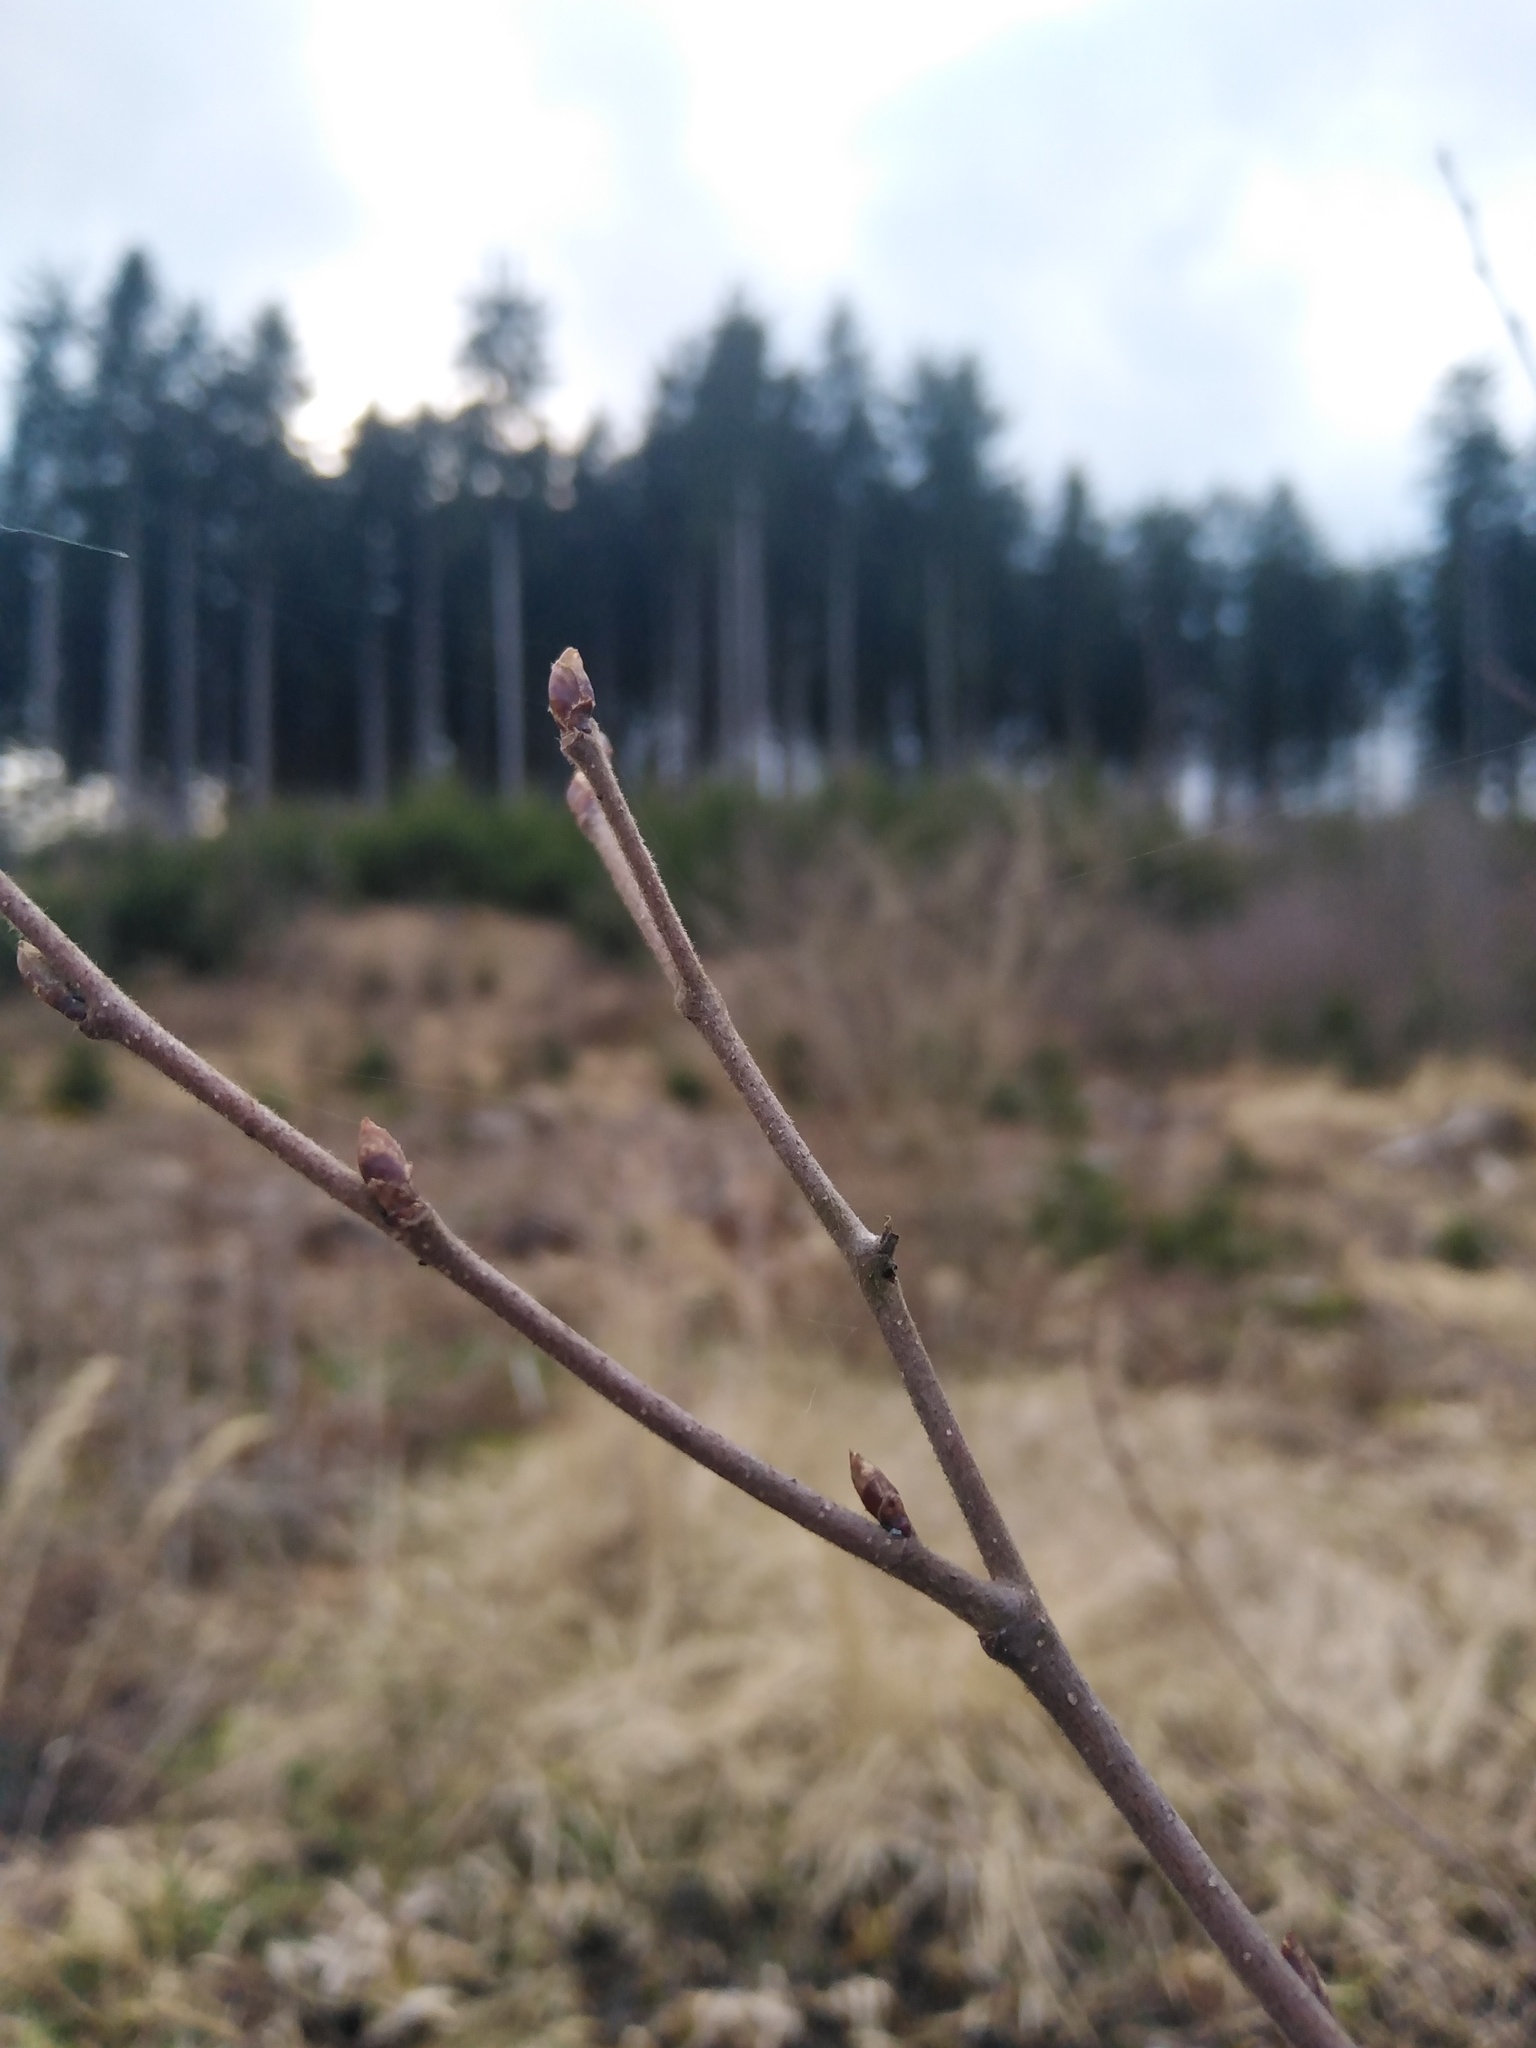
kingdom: Plantae
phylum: Tracheophyta
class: Magnoliopsida
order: Fagales
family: Betulaceae
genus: Betula
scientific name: Betula pubescens
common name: Downy birch
